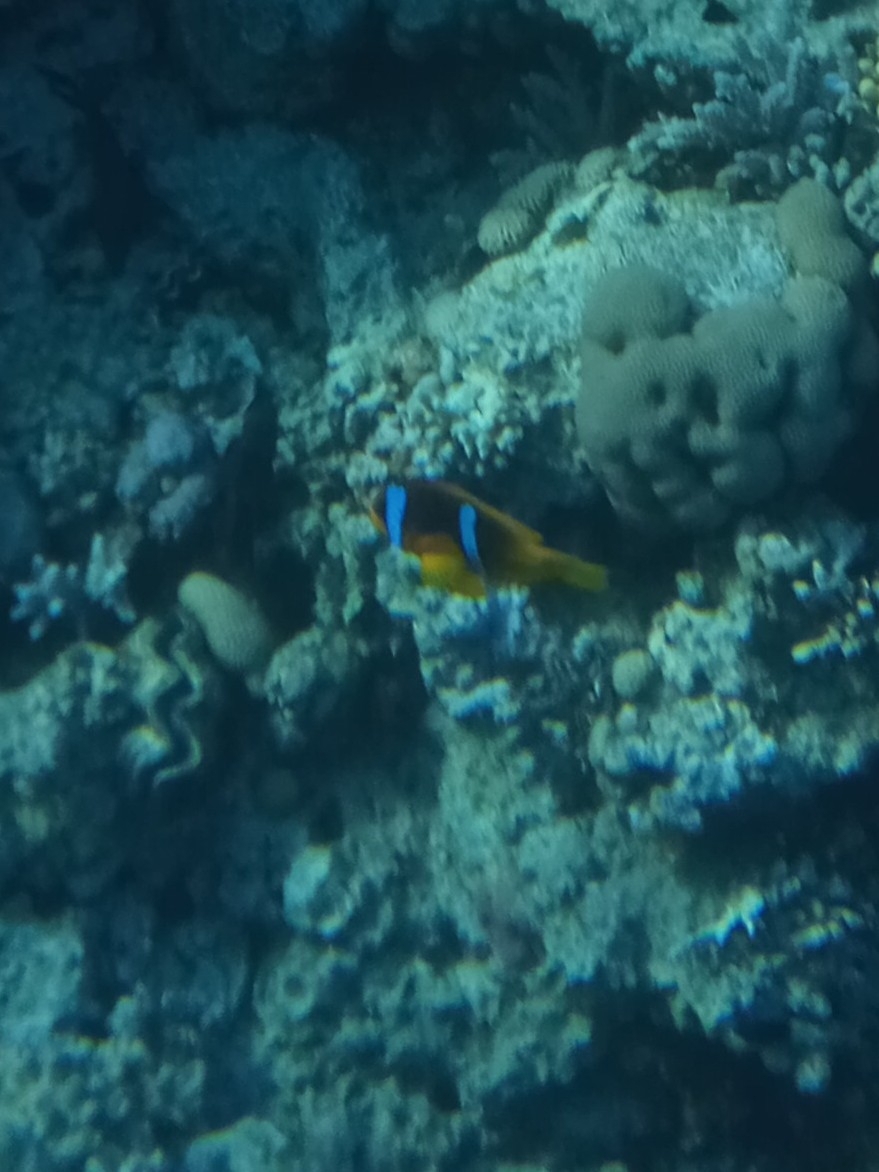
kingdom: Animalia
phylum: Chordata
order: Perciformes
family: Pomacentridae
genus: Amphiprion
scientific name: Amphiprion bicinctus
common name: Two-banded anemonefish
